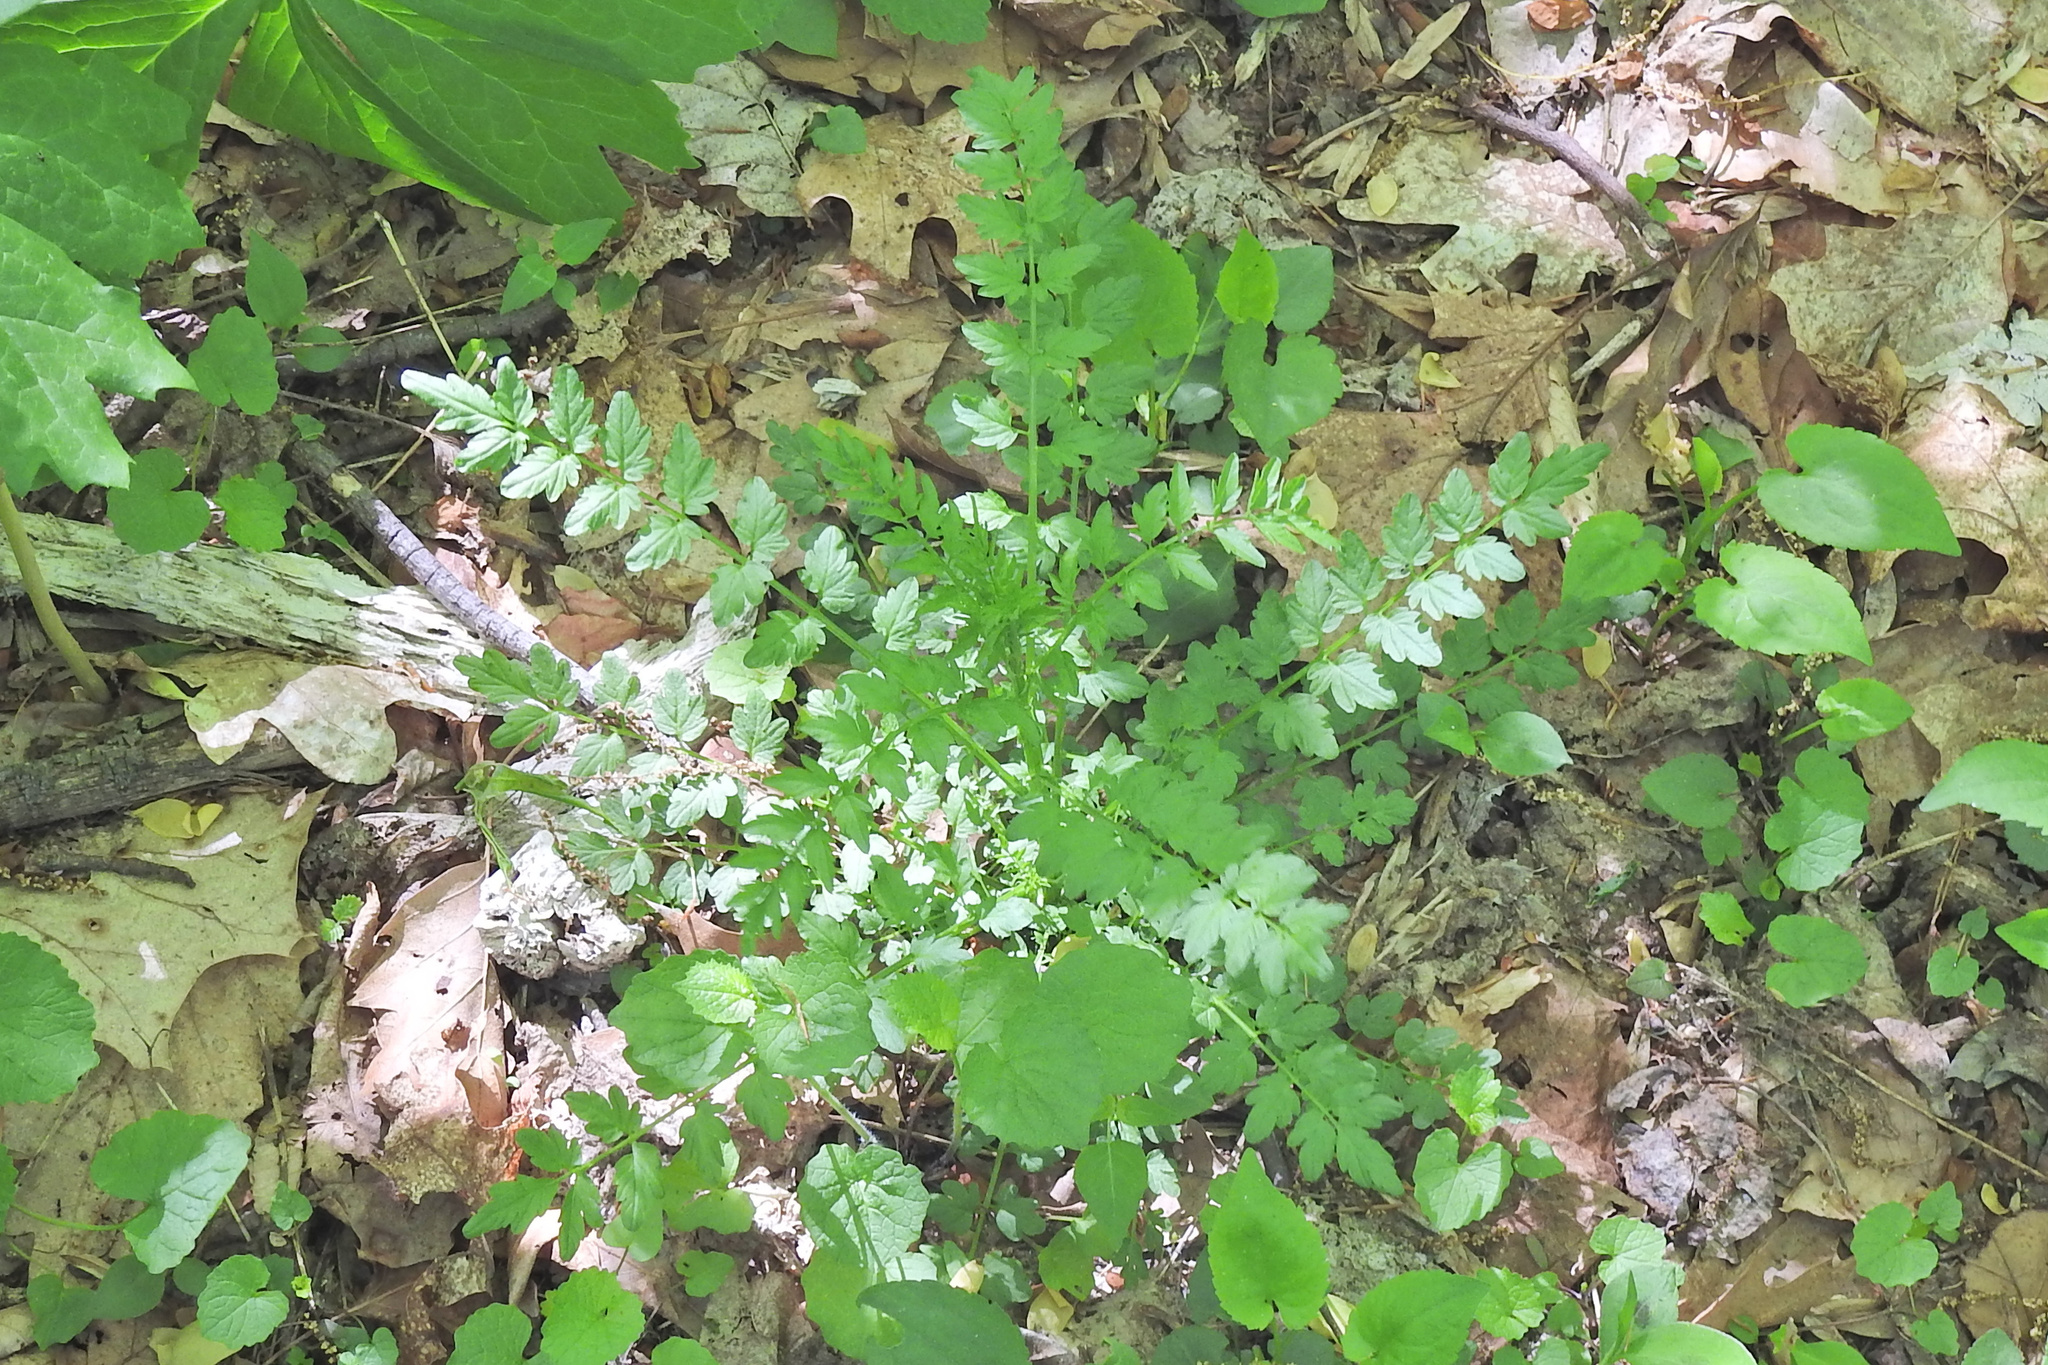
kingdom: Plantae
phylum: Tracheophyta
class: Magnoliopsida
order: Brassicales
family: Brassicaceae
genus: Cardamine
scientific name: Cardamine impatiens
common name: Narrow-leaved bitter-cress
